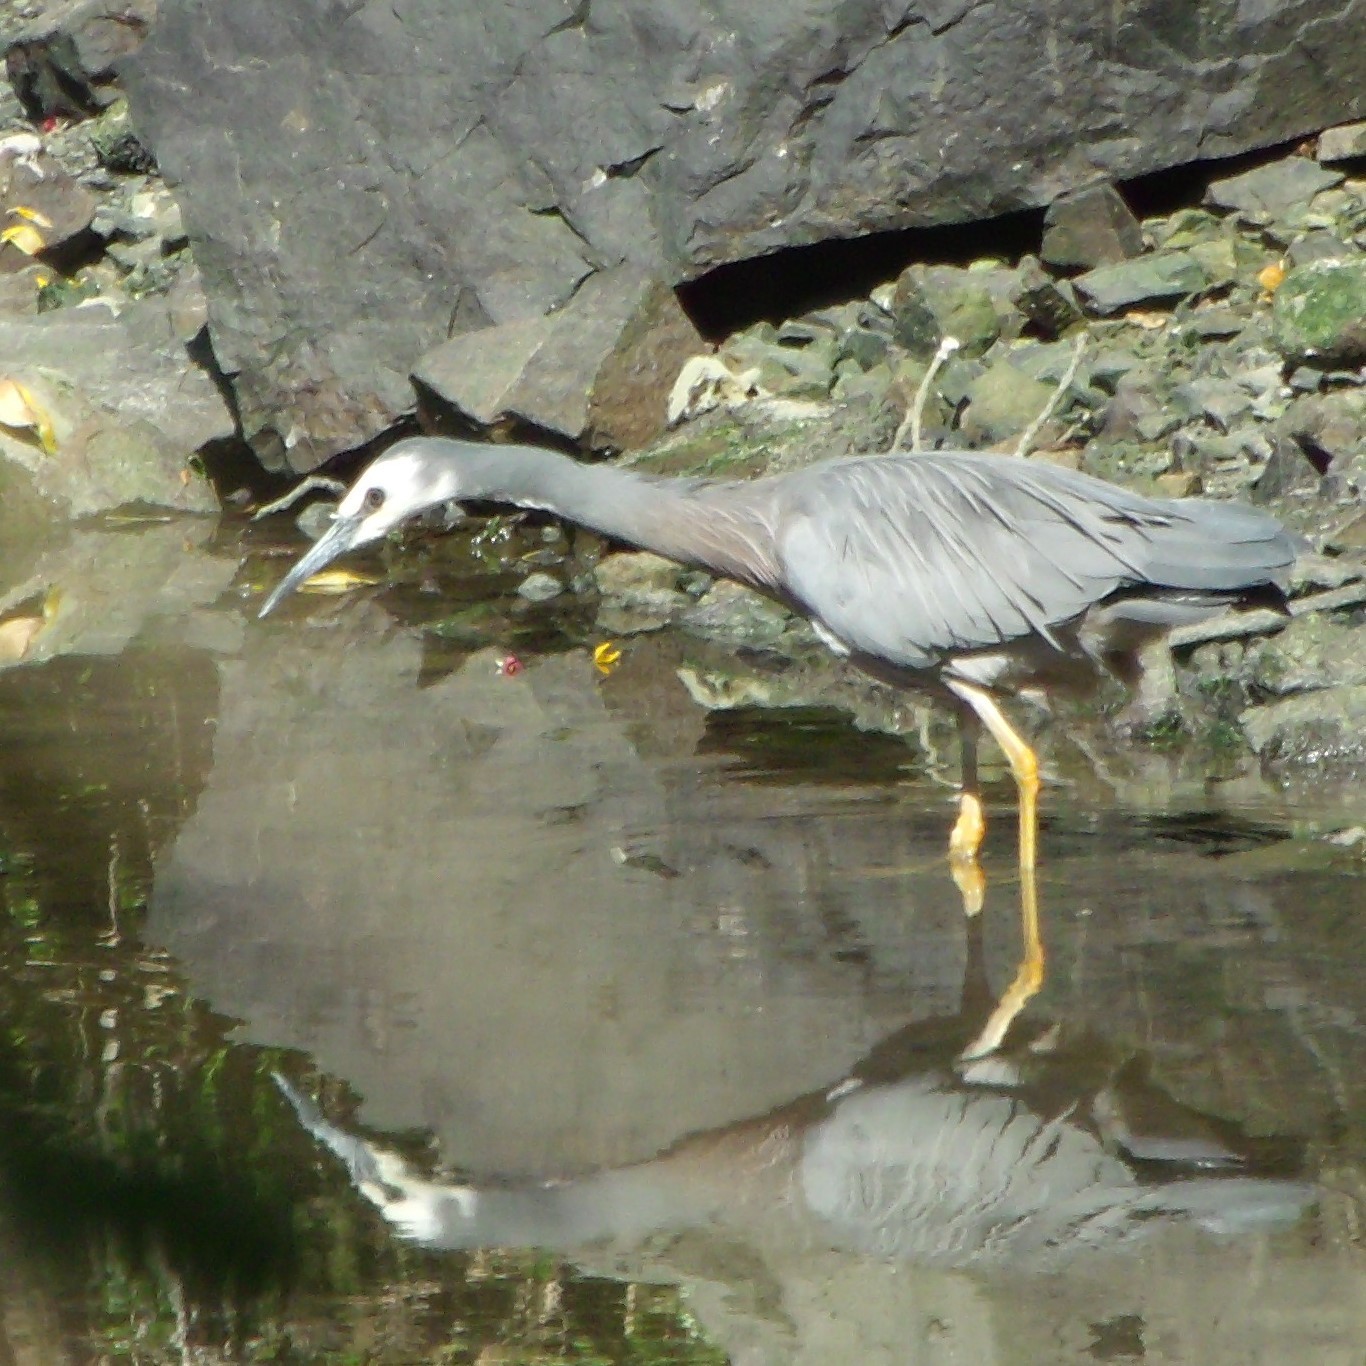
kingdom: Animalia
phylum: Chordata
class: Aves
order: Pelecaniformes
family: Ardeidae
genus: Egretta
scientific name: Egretta novaehollandiae
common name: White-faced heron
